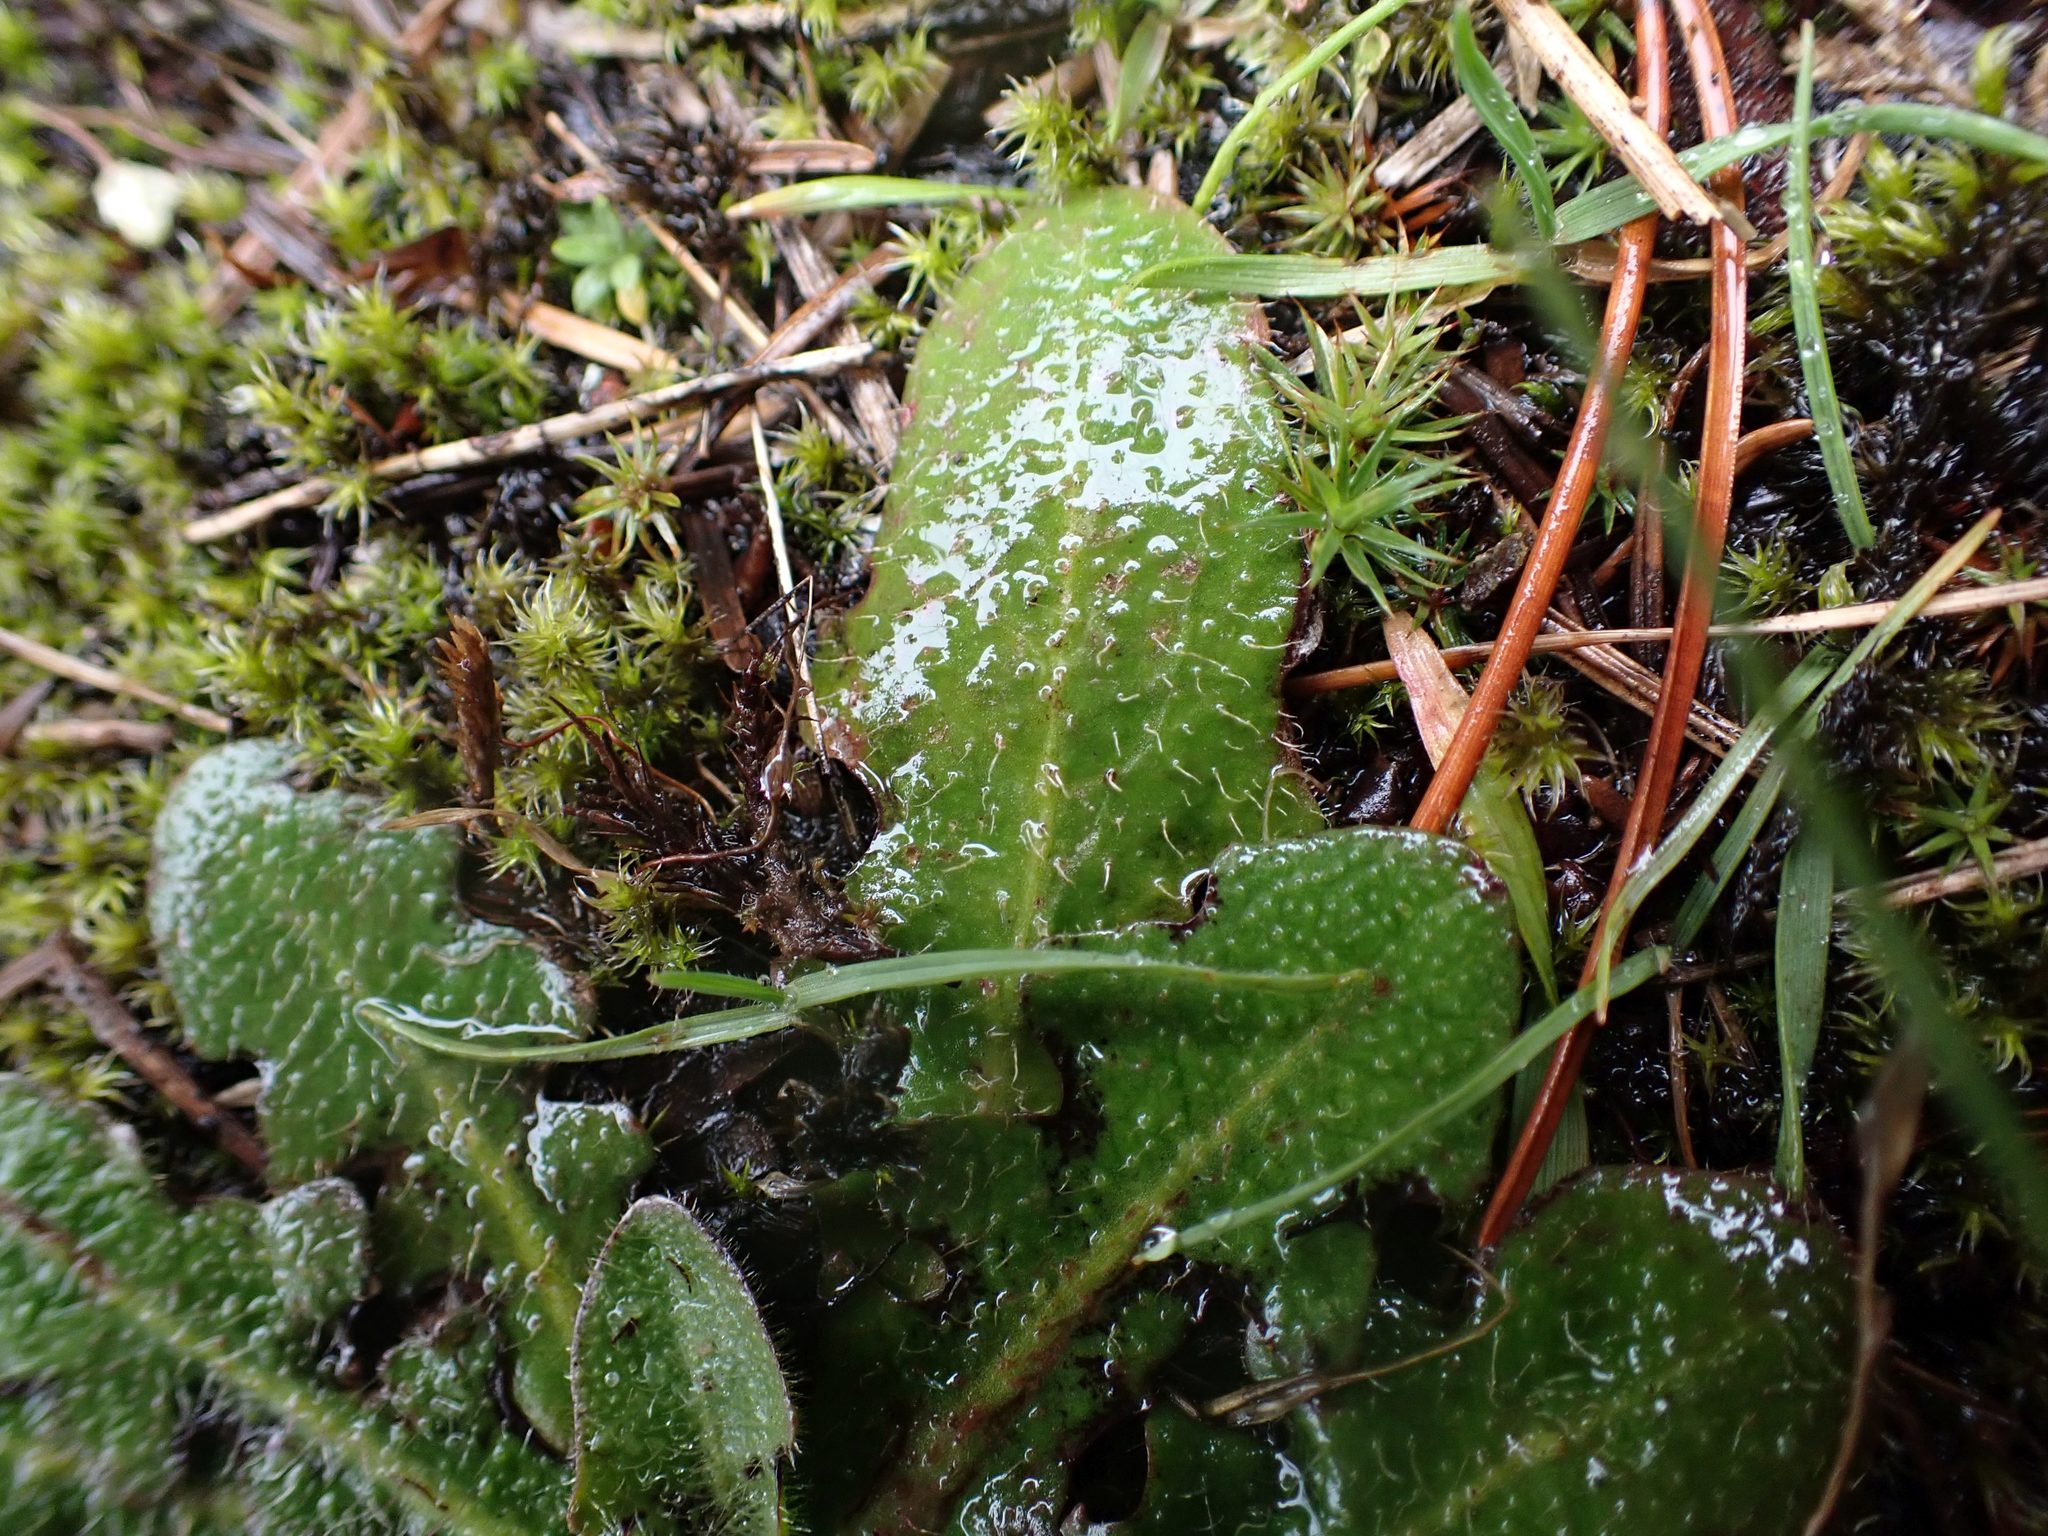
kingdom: Plantae
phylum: Tracheophyta
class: Magnoliopsida
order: Asterales
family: Asteraceae
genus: Hypochaeris
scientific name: Hypochaeris radicata
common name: Flatweed
